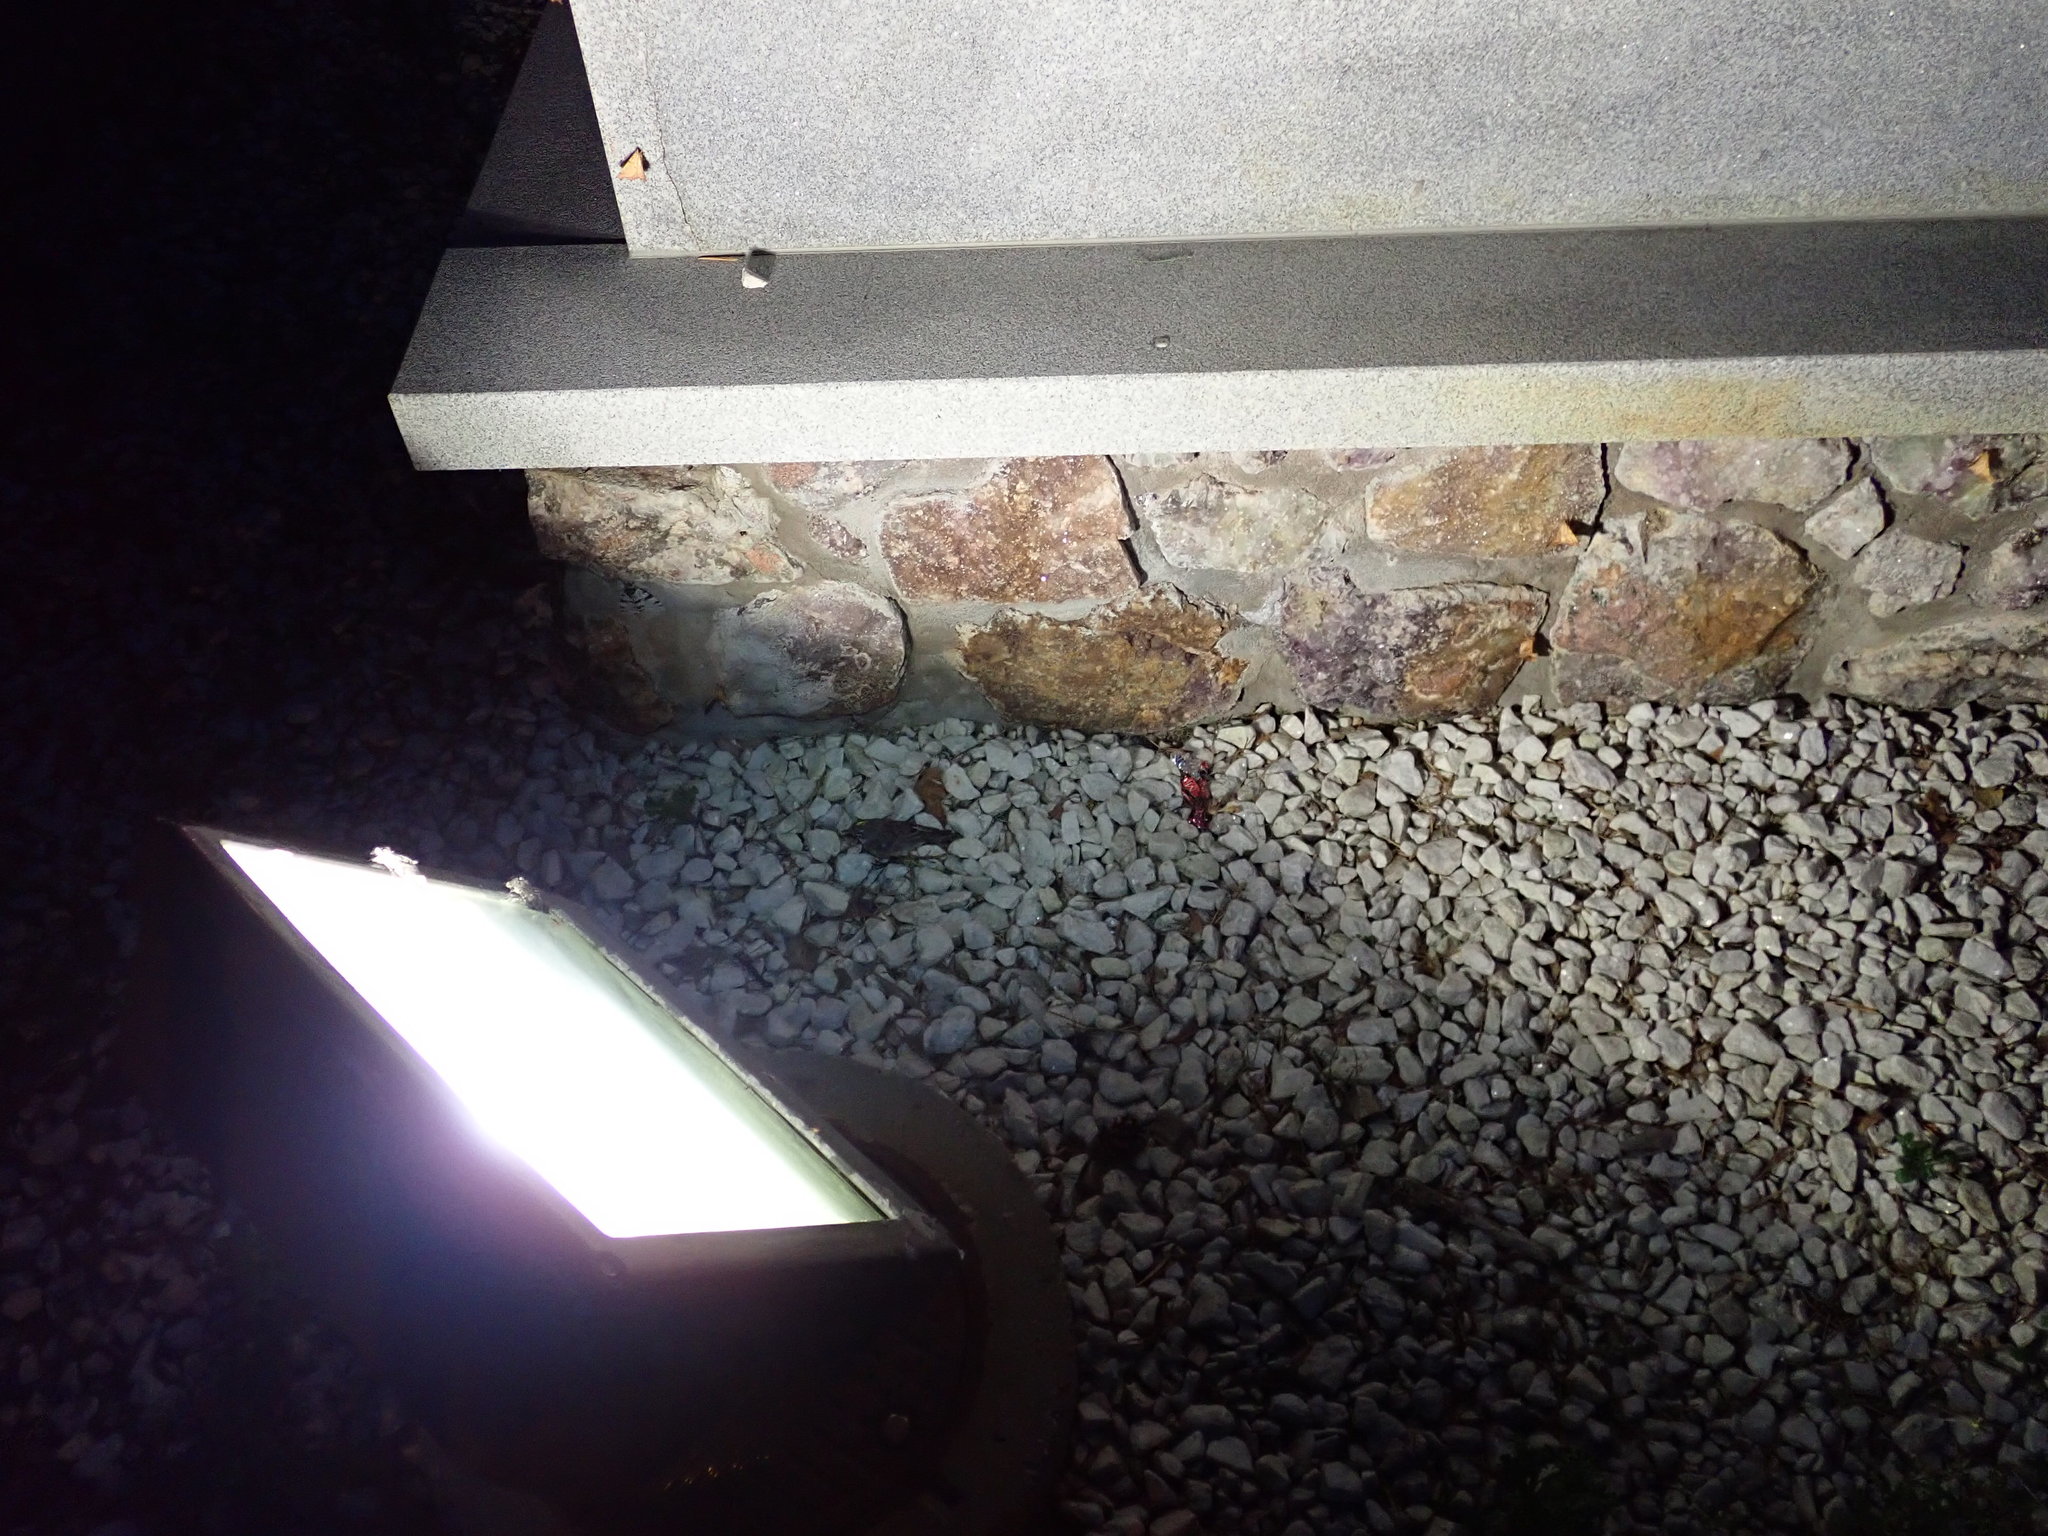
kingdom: Animalia
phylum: Chordata
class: Aves
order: Passeriformes
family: Parulidae
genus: Setophaga
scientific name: Setophaga coronata
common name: Myrtle warbler
